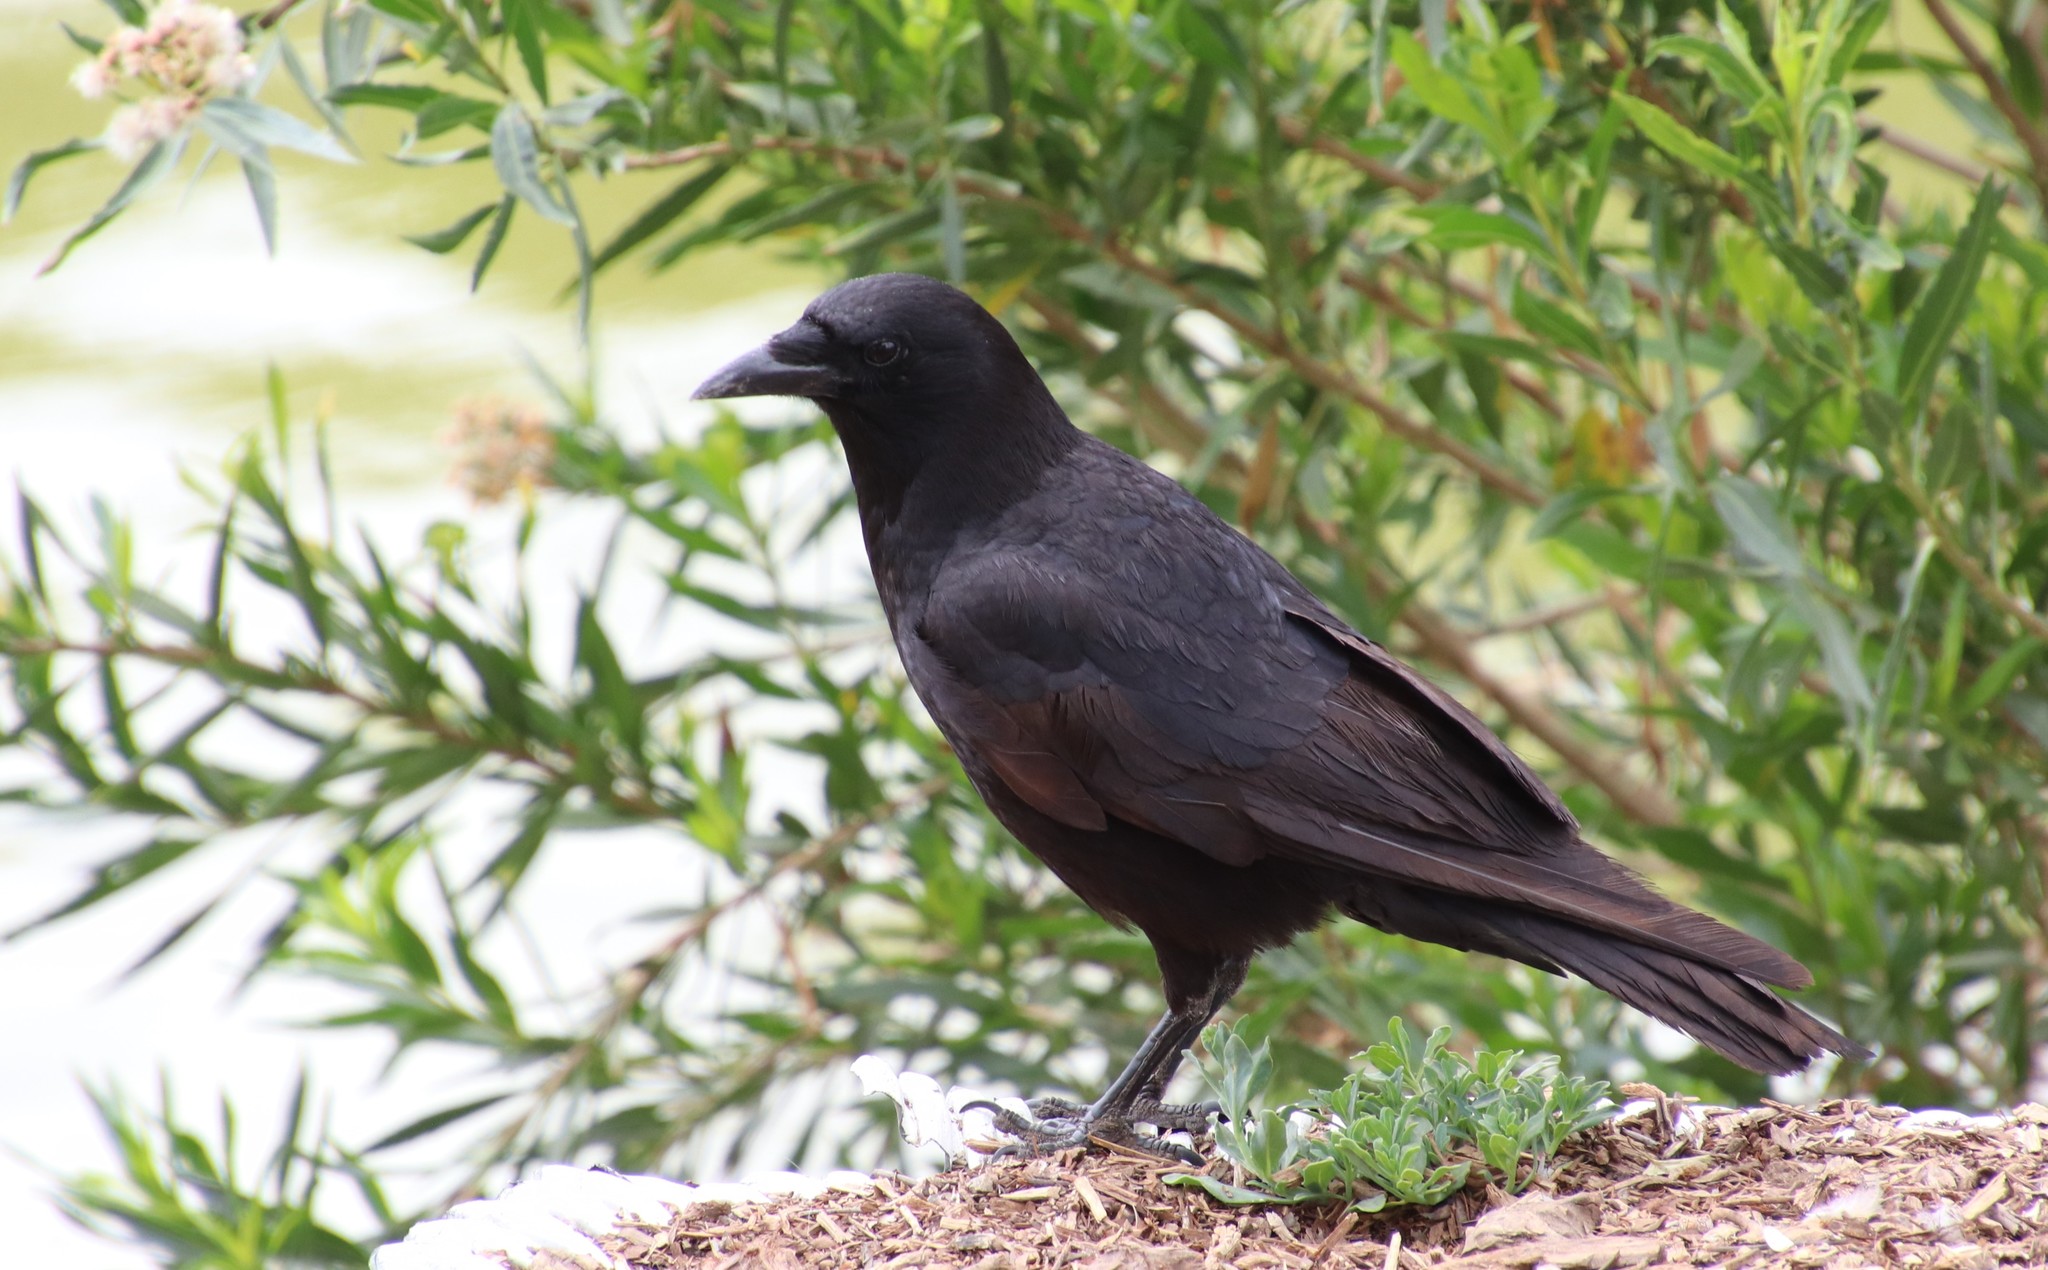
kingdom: Animalia
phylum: Chordata
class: Aves
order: Passeriformes
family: Corvidae
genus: Corvus
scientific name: Corvus brachyrhynchos
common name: American crow
